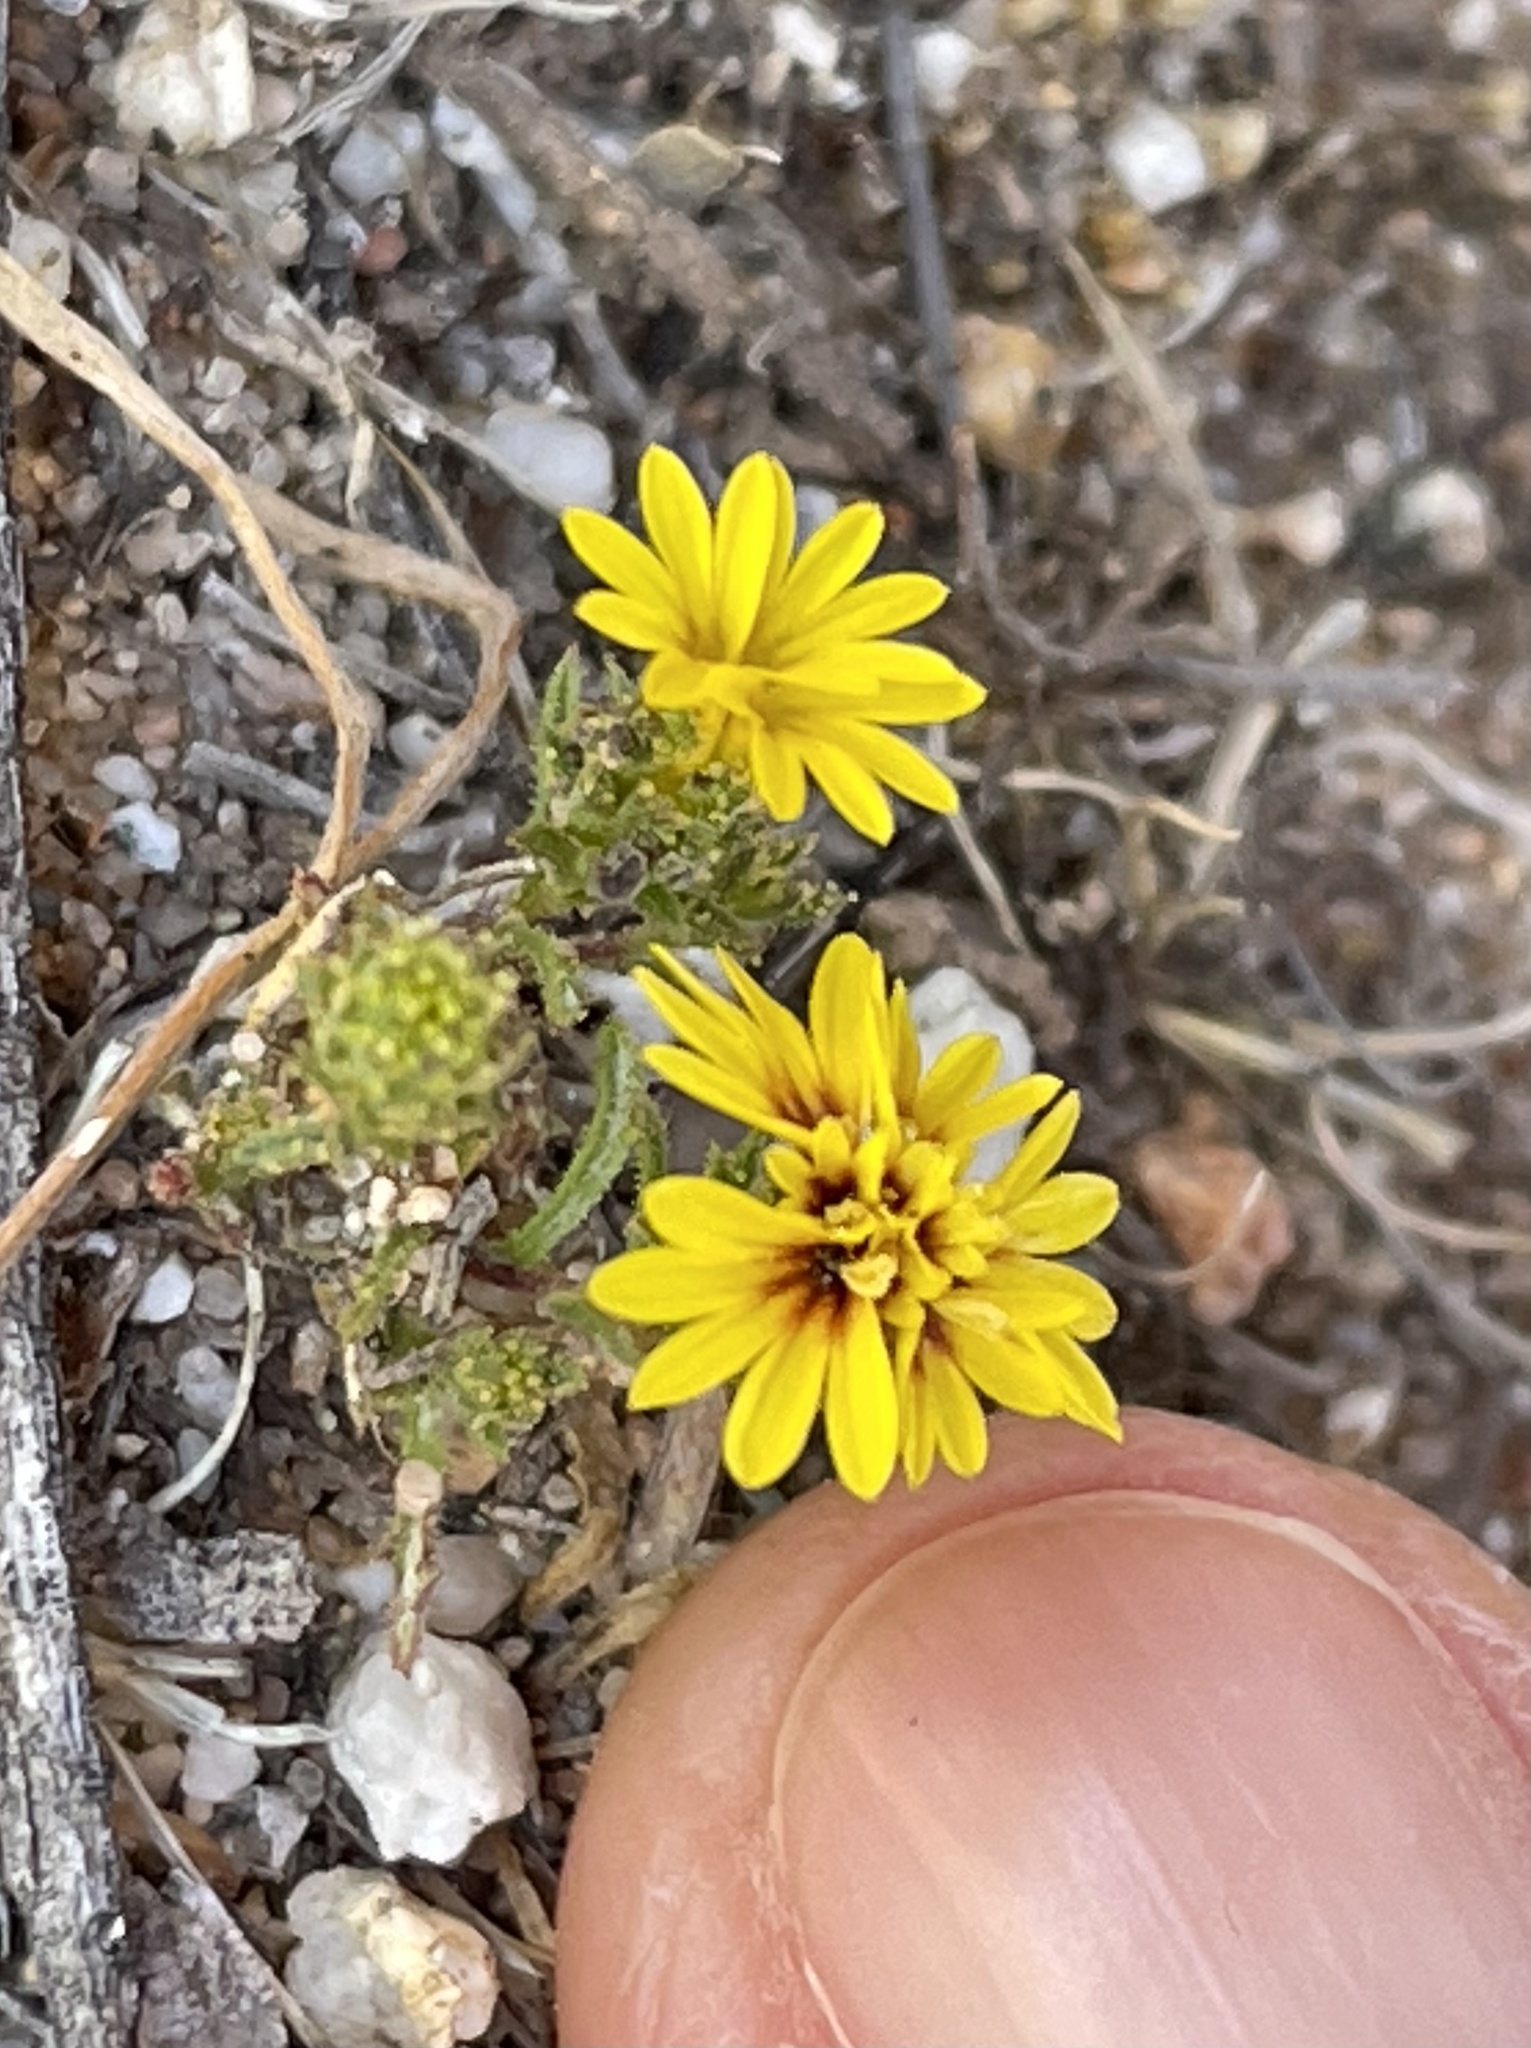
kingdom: Plantae
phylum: Tracheophyta
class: Magnoliopsida
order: Asterales
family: Asteraceae
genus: Lessingia
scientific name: Lessingia pectinata
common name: Valley lessingia
